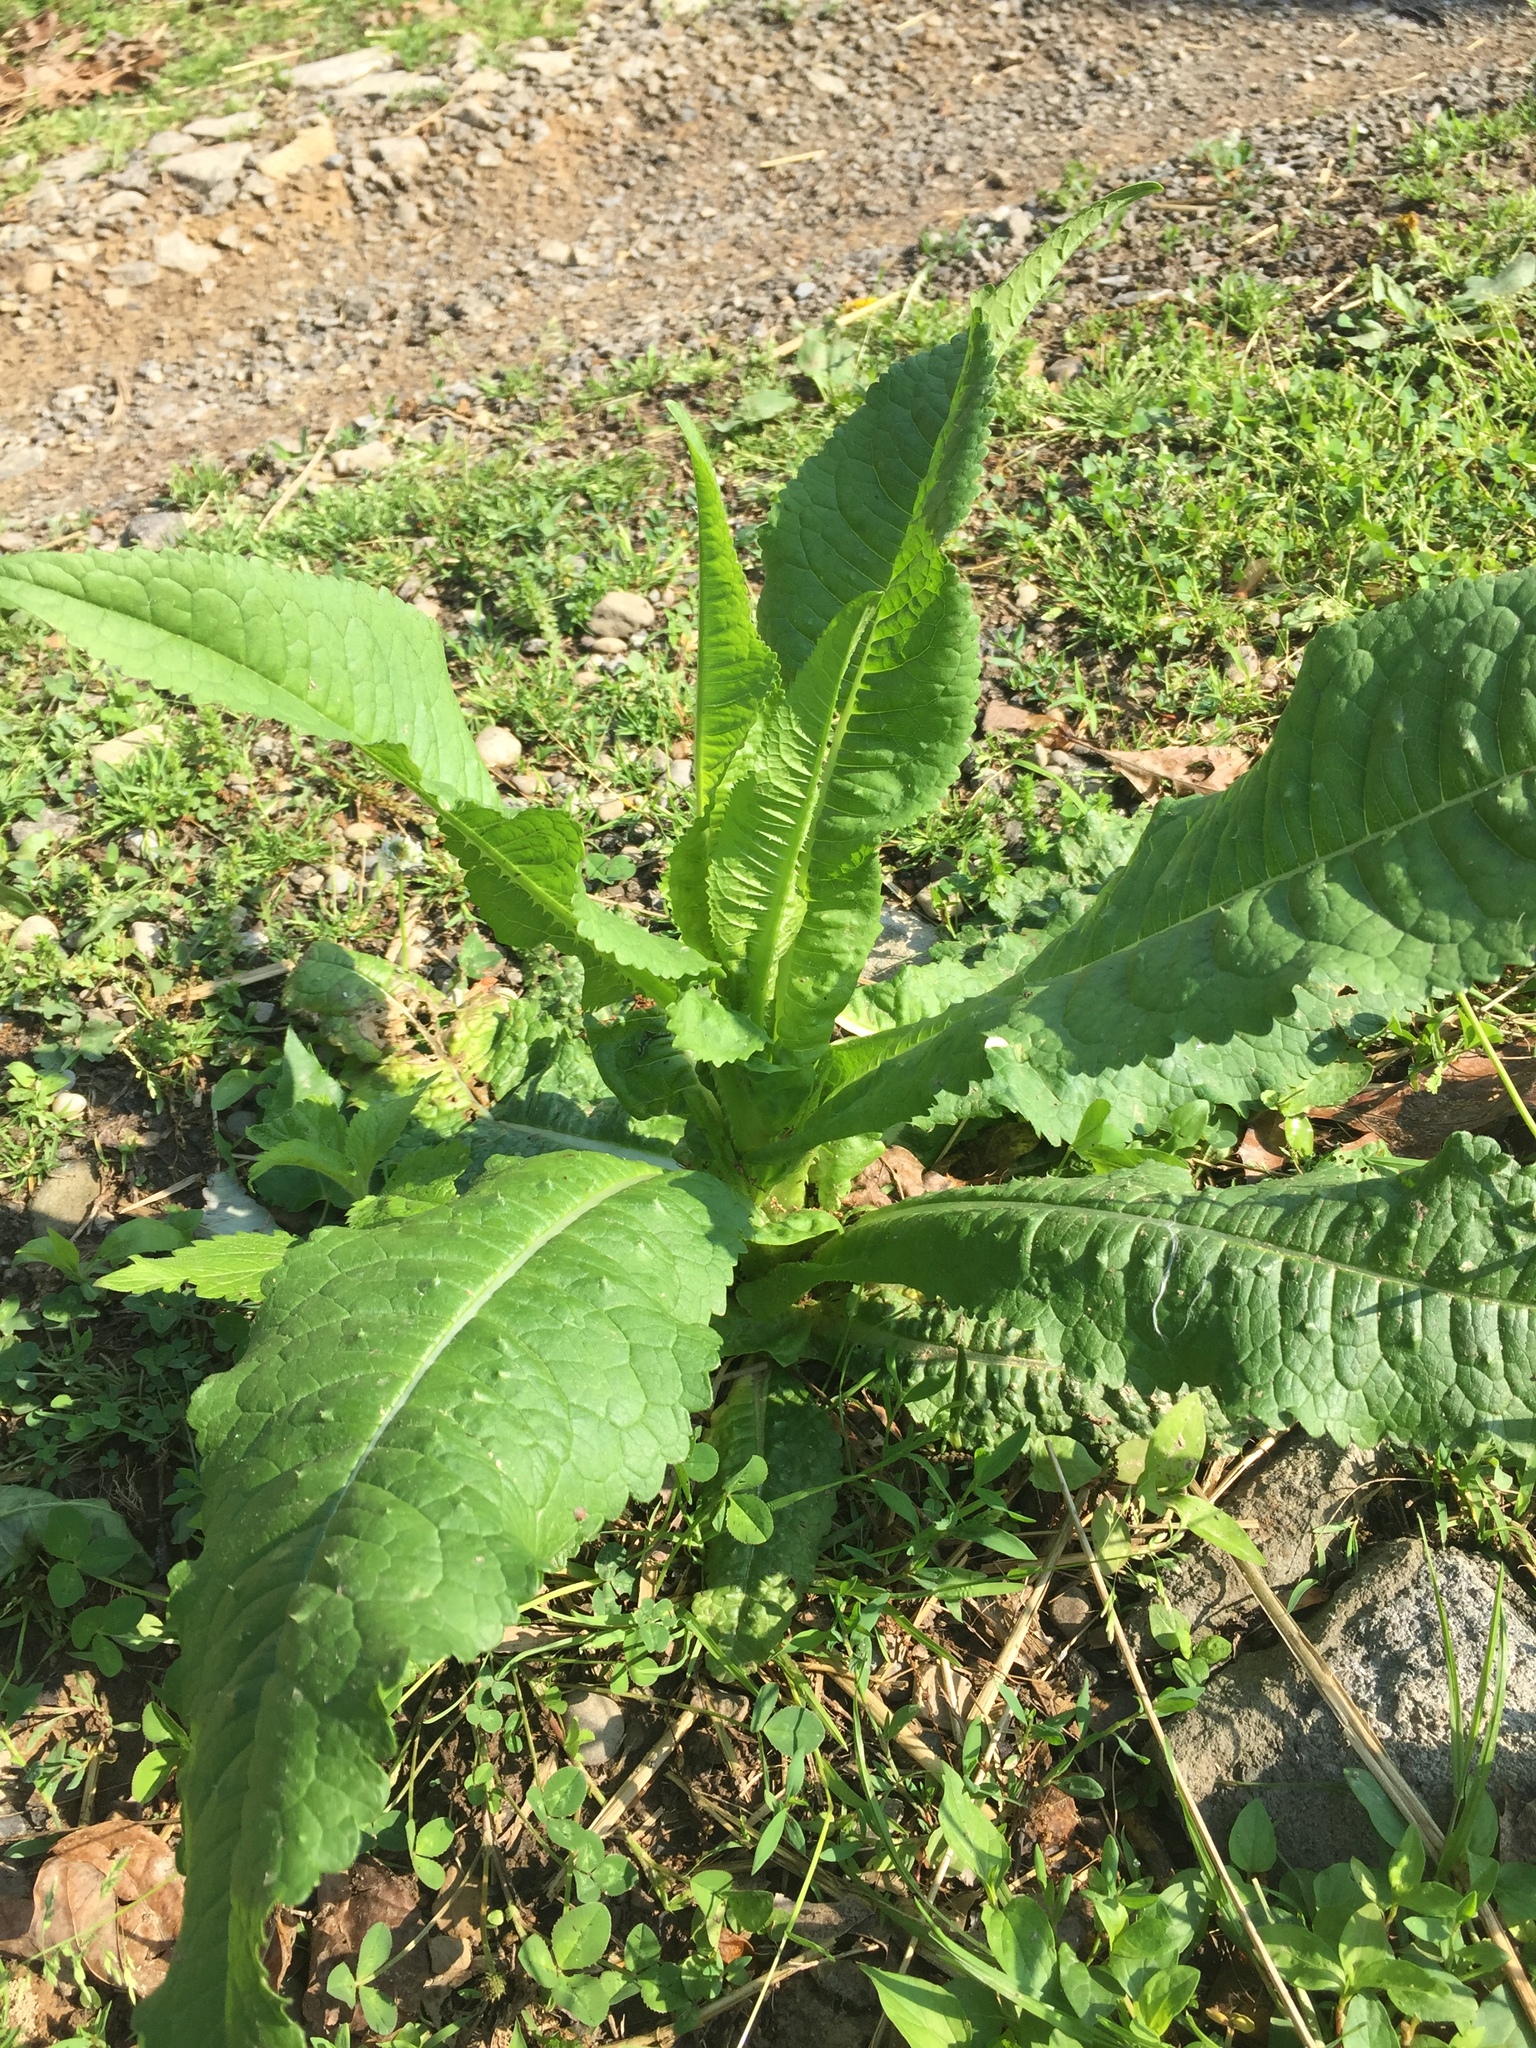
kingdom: Plantae
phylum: Tracheophyta
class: Magnoliopsida
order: Dipsacales
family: Caprifoliaceae
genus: Dipsacus
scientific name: Dipsacus fullonum
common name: Teasel
